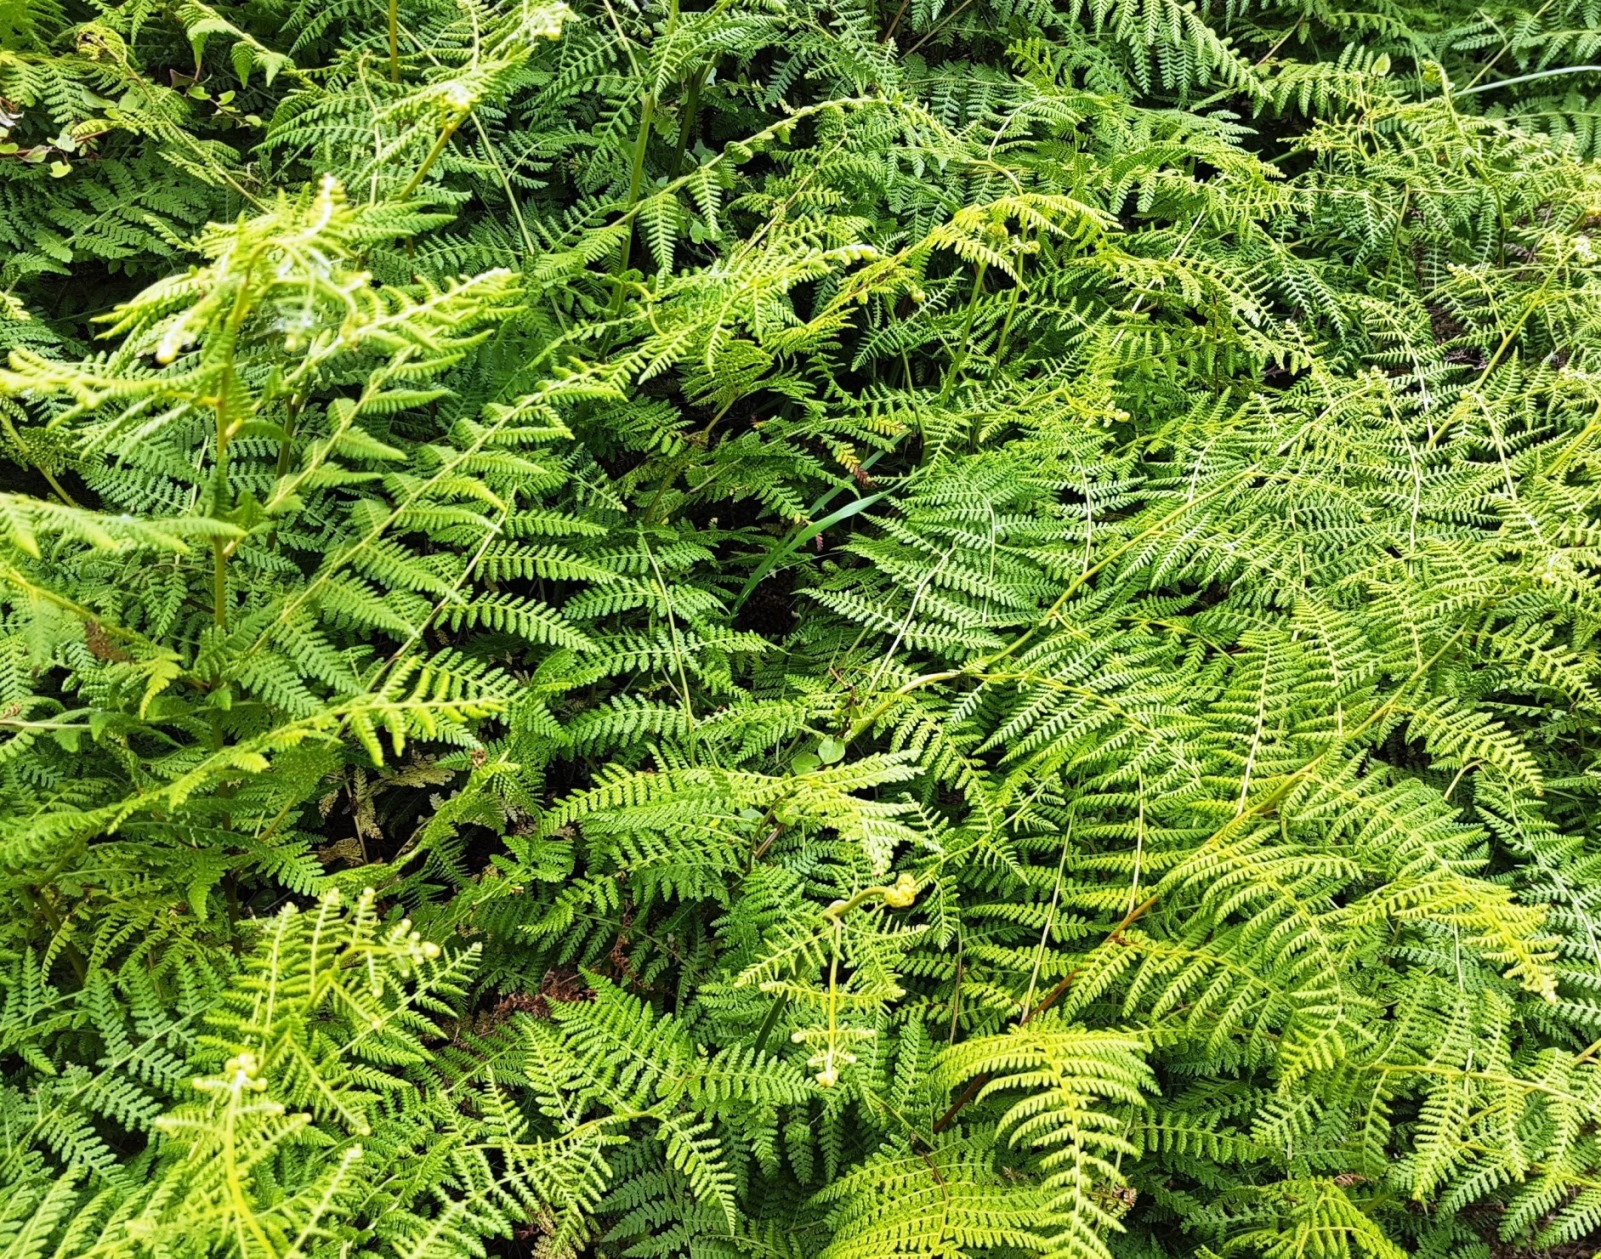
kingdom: Plantae
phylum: Tracheophyta
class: Polypodiopsida
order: Polypodiales
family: Dennstaedtiaceae
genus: Hypolepis
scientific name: Hypolepis ambigua
